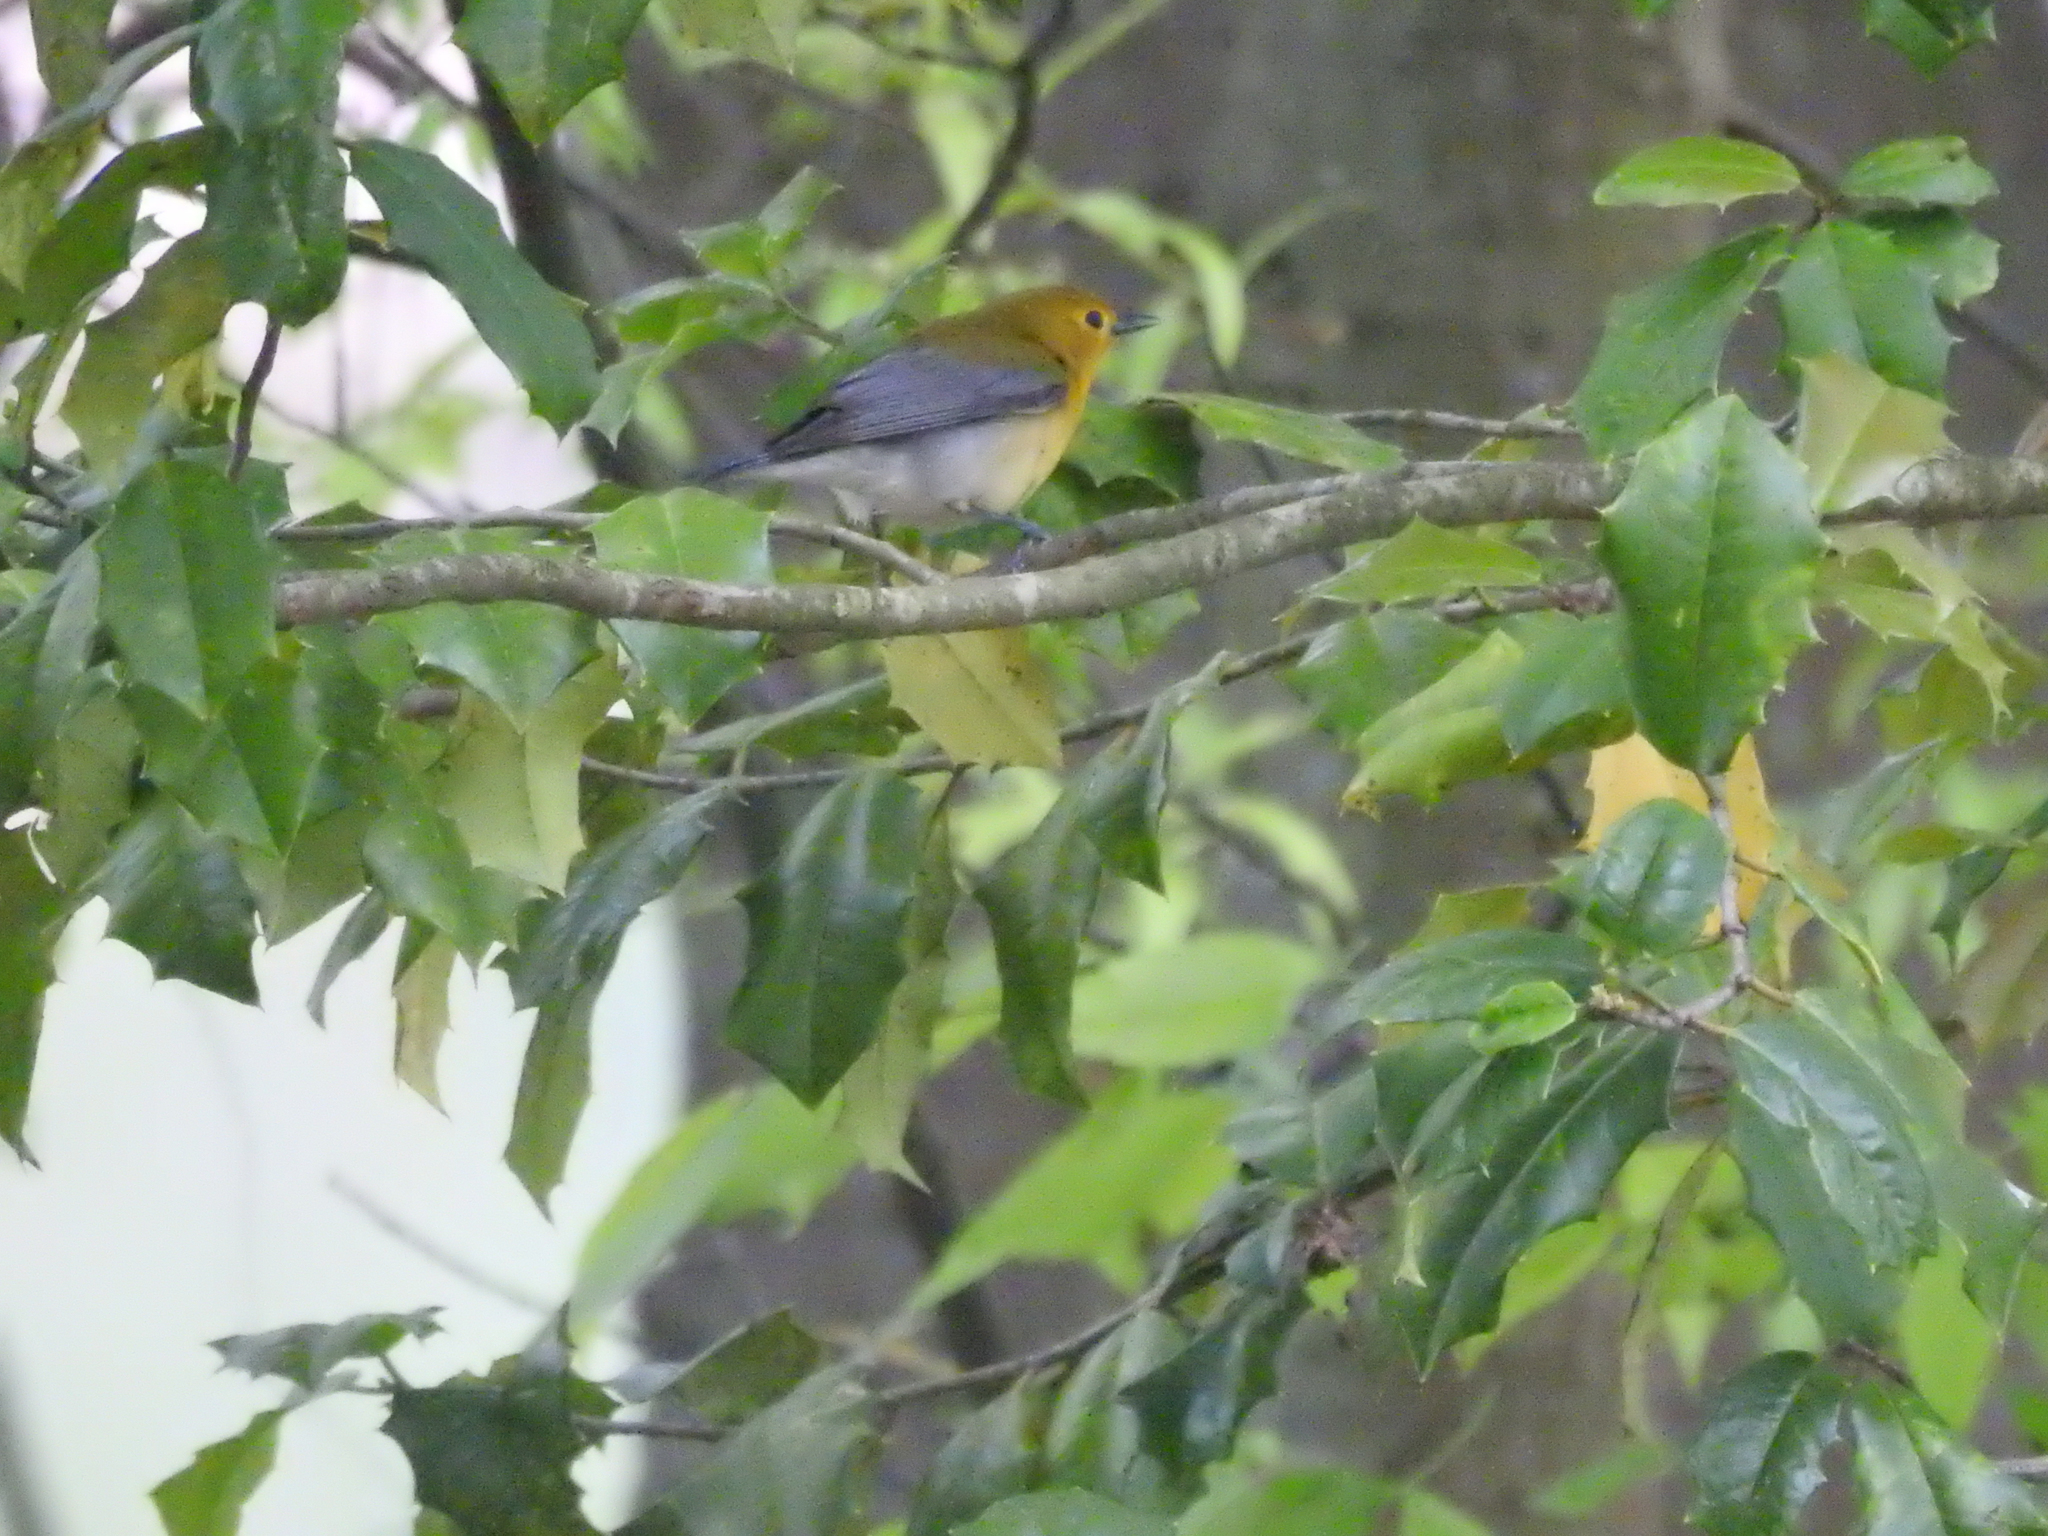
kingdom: Animalia
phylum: Chordata
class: Aves
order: Passeriformes
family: Parulidae
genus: Protonotaria
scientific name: Protonotaria citrea
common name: Prothonotary warbler
